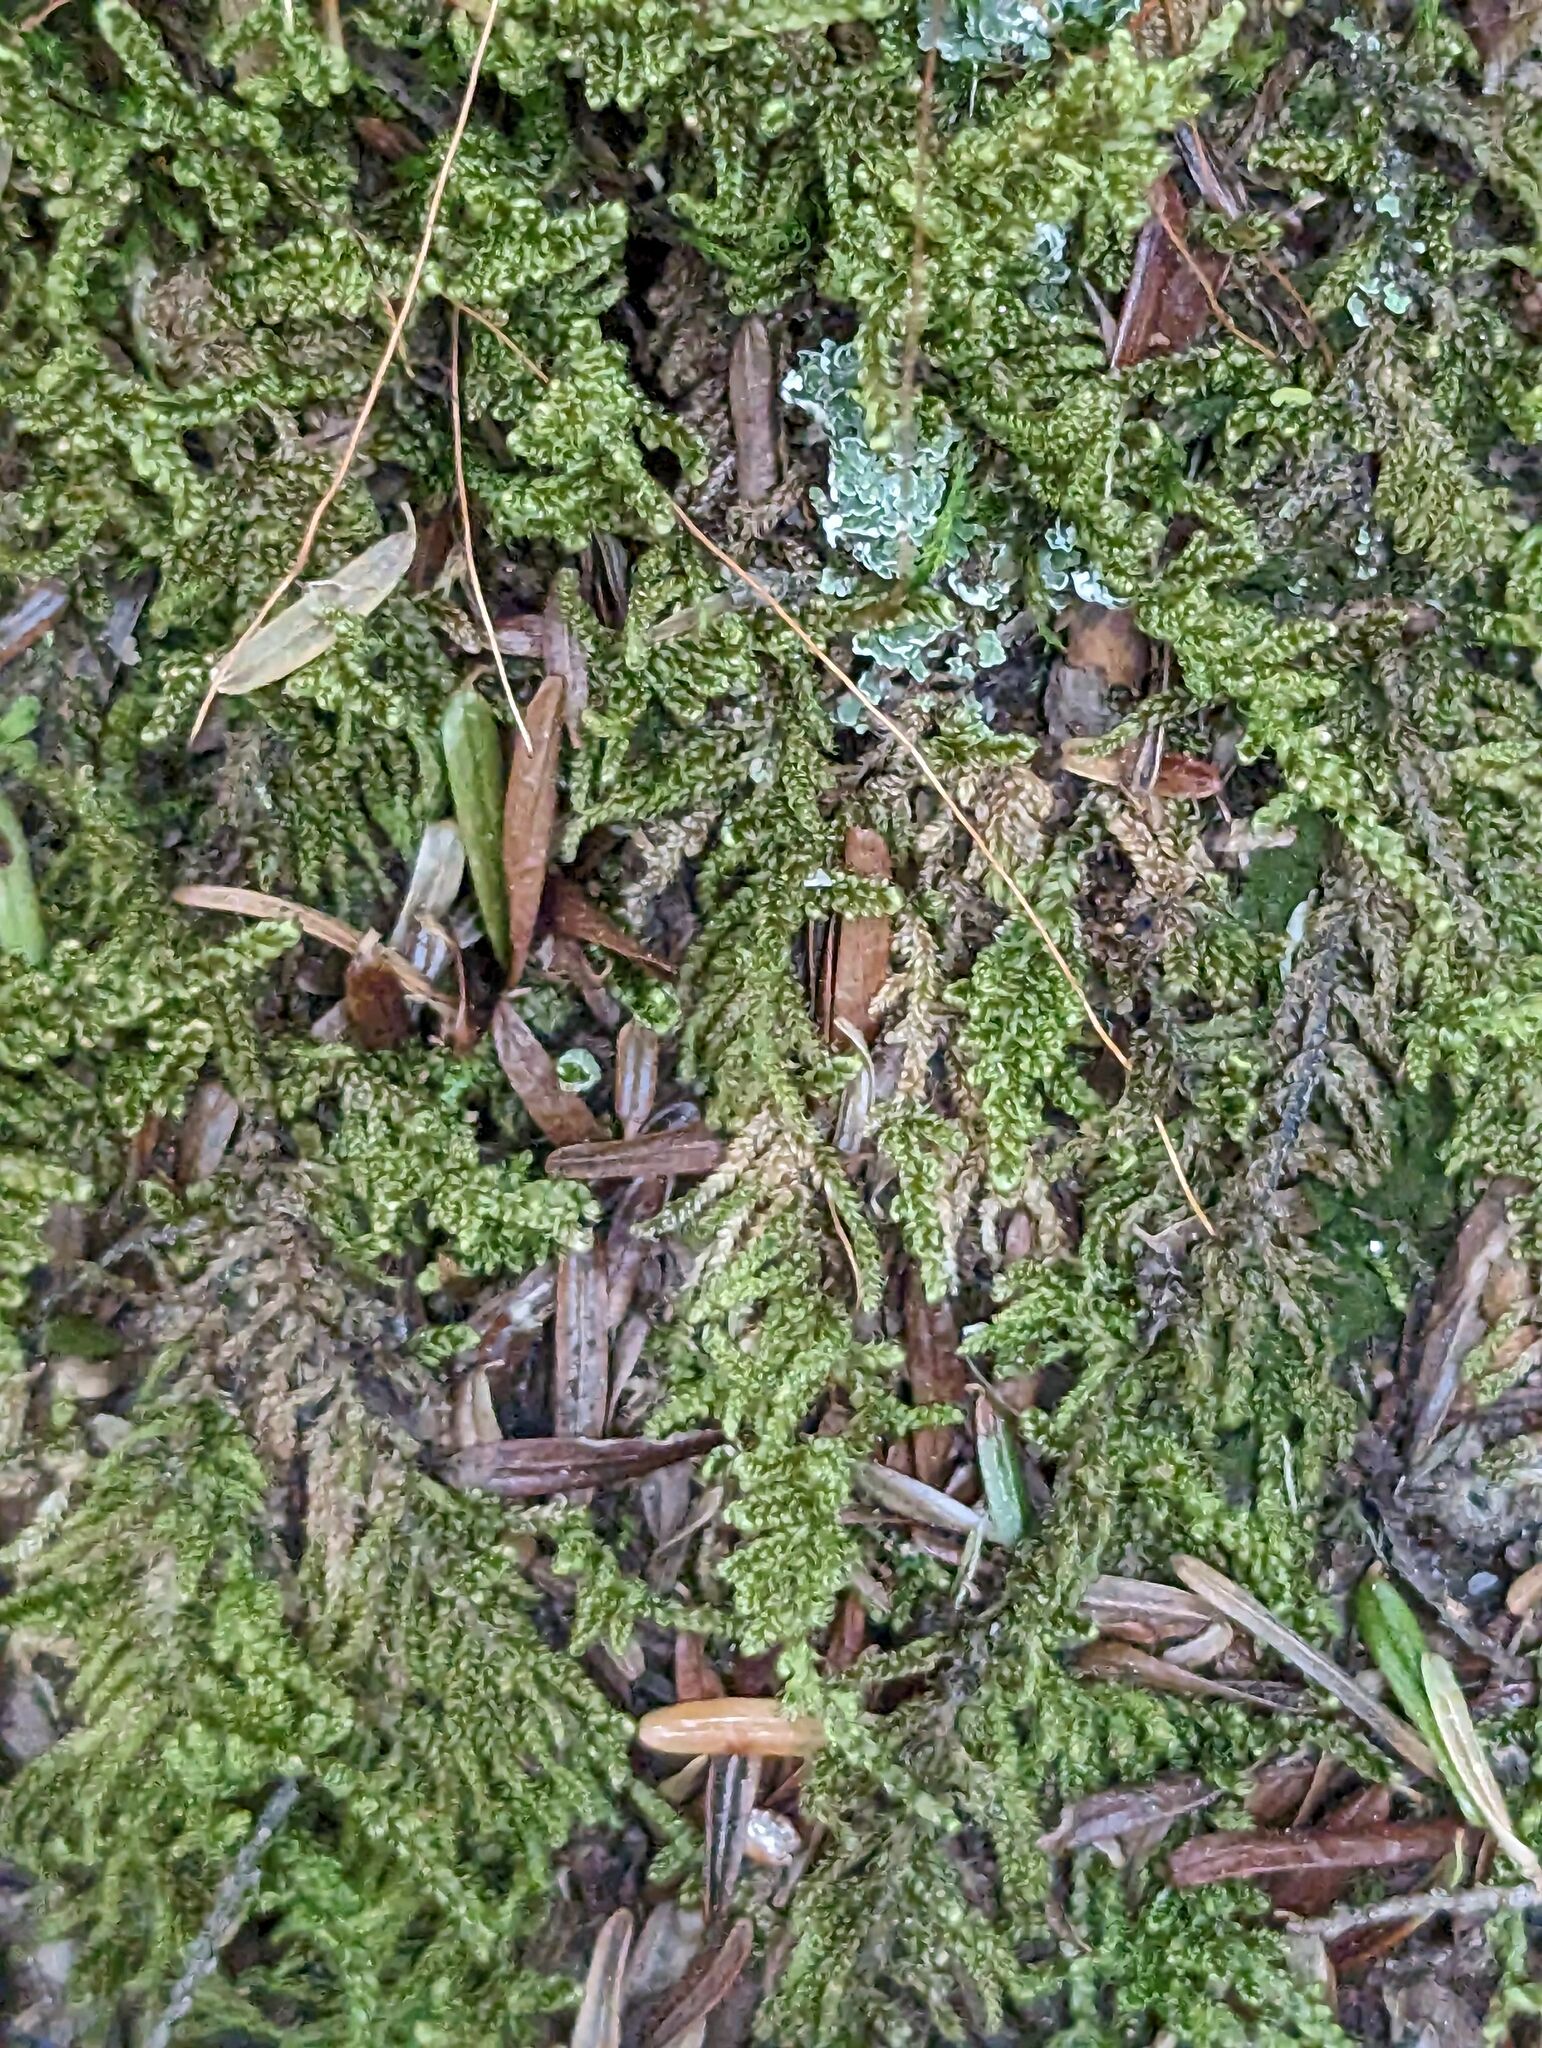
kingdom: Plantae
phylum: Bryophyta
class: Bryopsida
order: Hypnales
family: Callicladiaceae
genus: Callicladium
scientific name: Callicladium imponens
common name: Brocade moss
